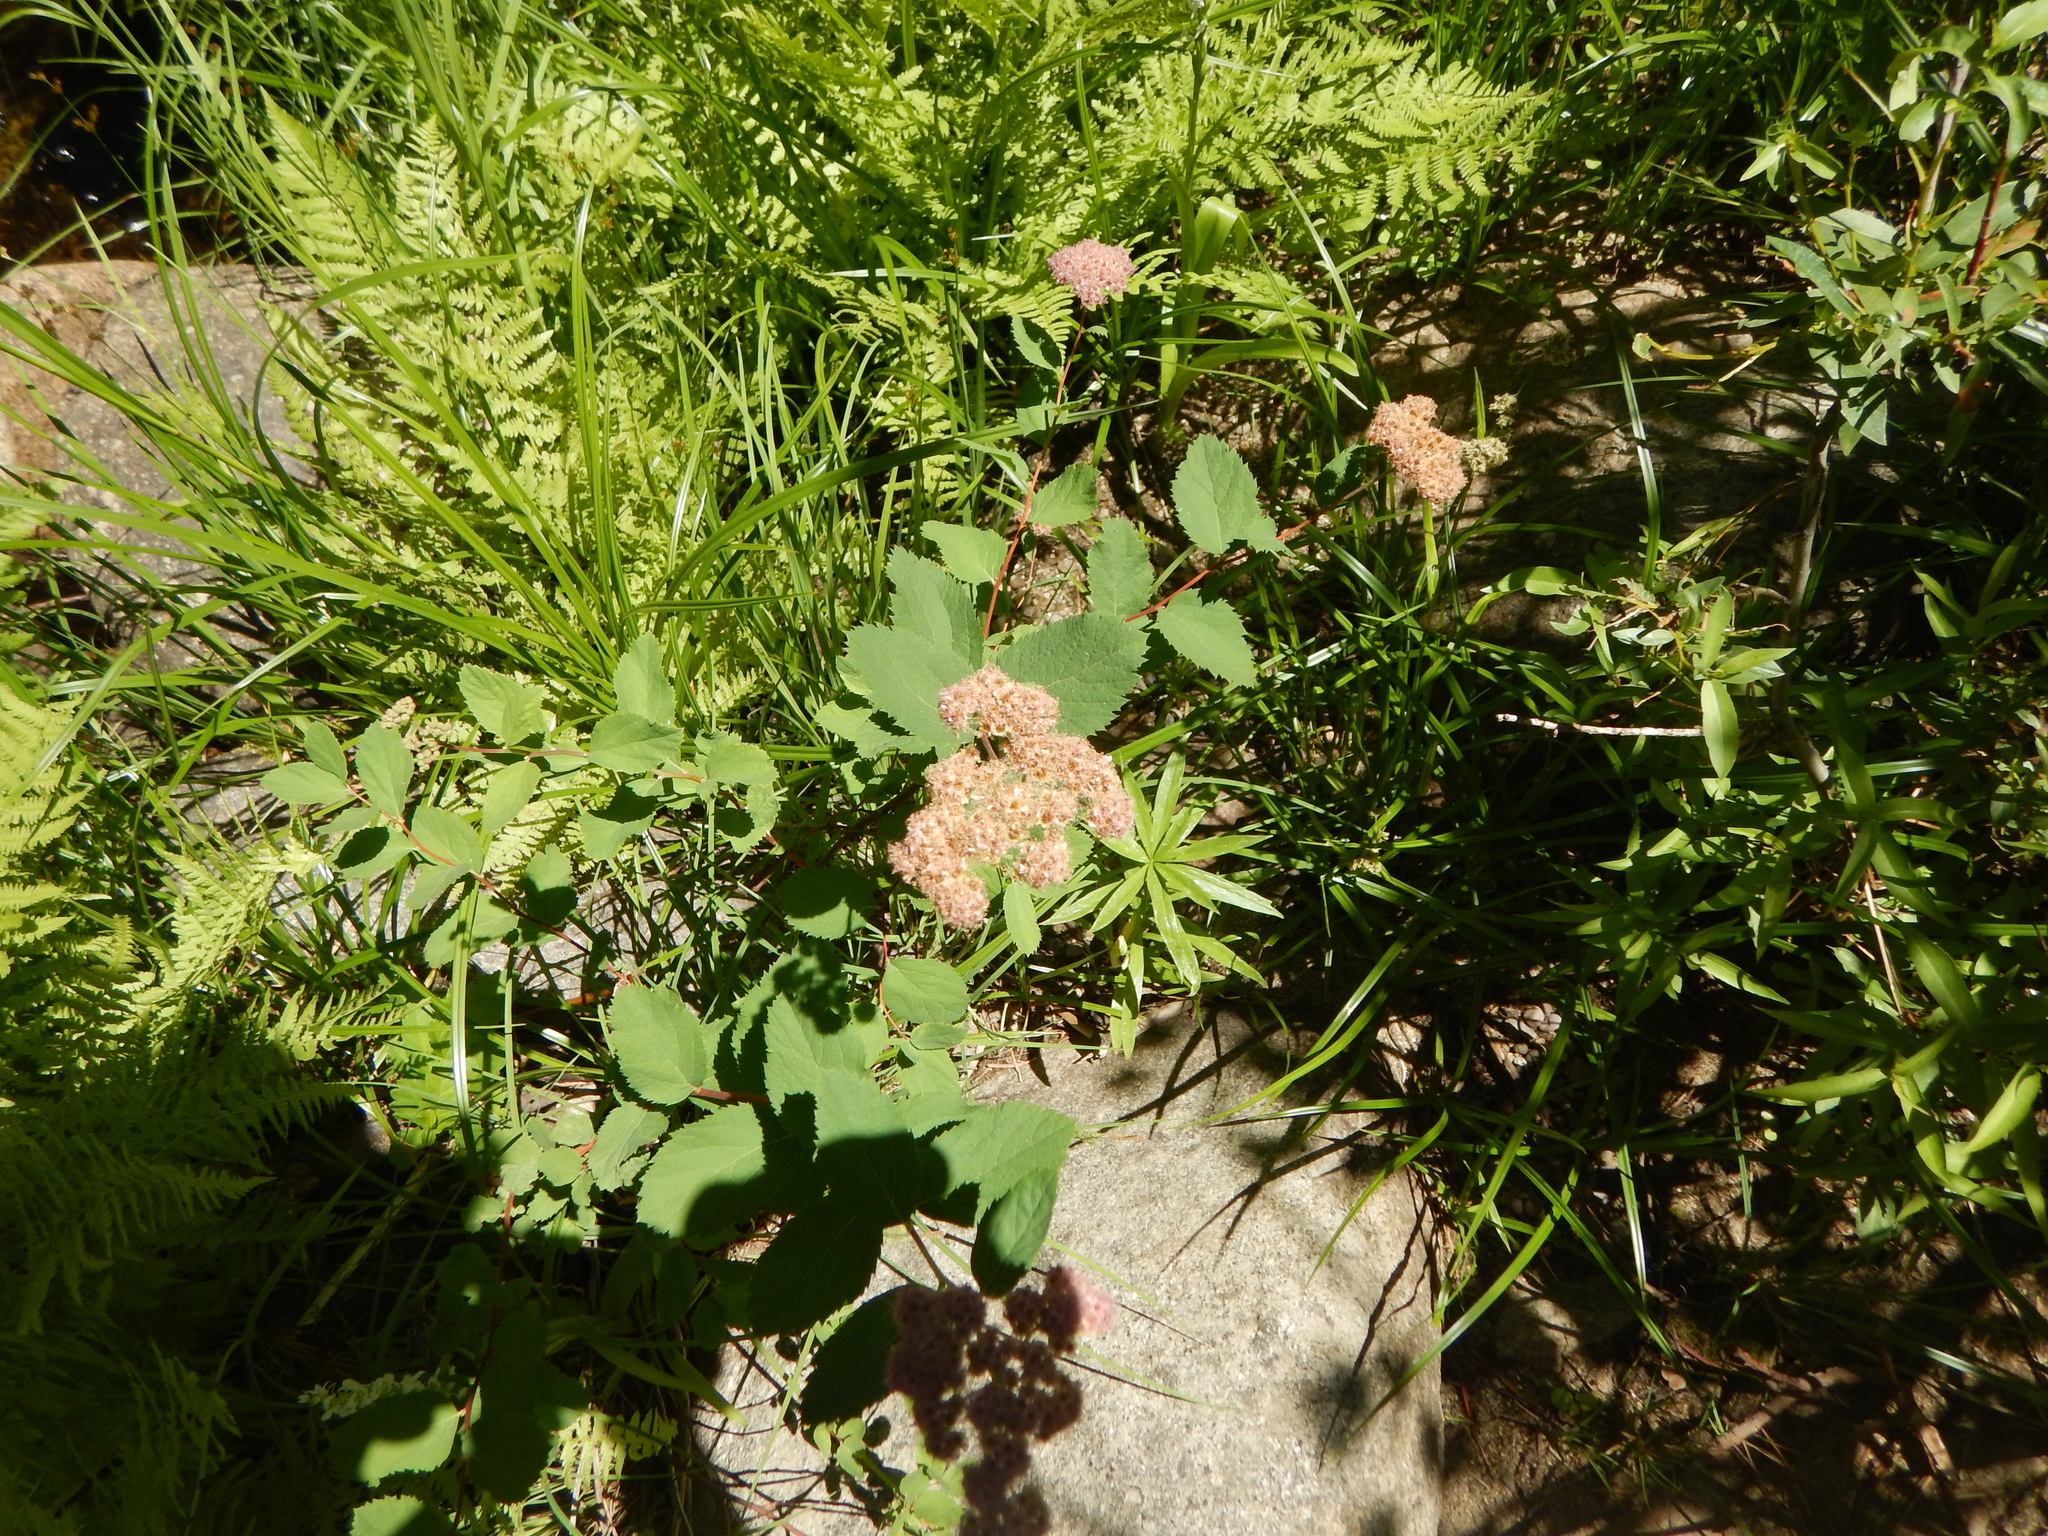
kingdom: Plantae
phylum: Tracheophyta
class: Magnoliopsida
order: Rosales
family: Rosaceae
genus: Spiraea
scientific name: Spiraea splendens
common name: Subalpine meadowsweet
